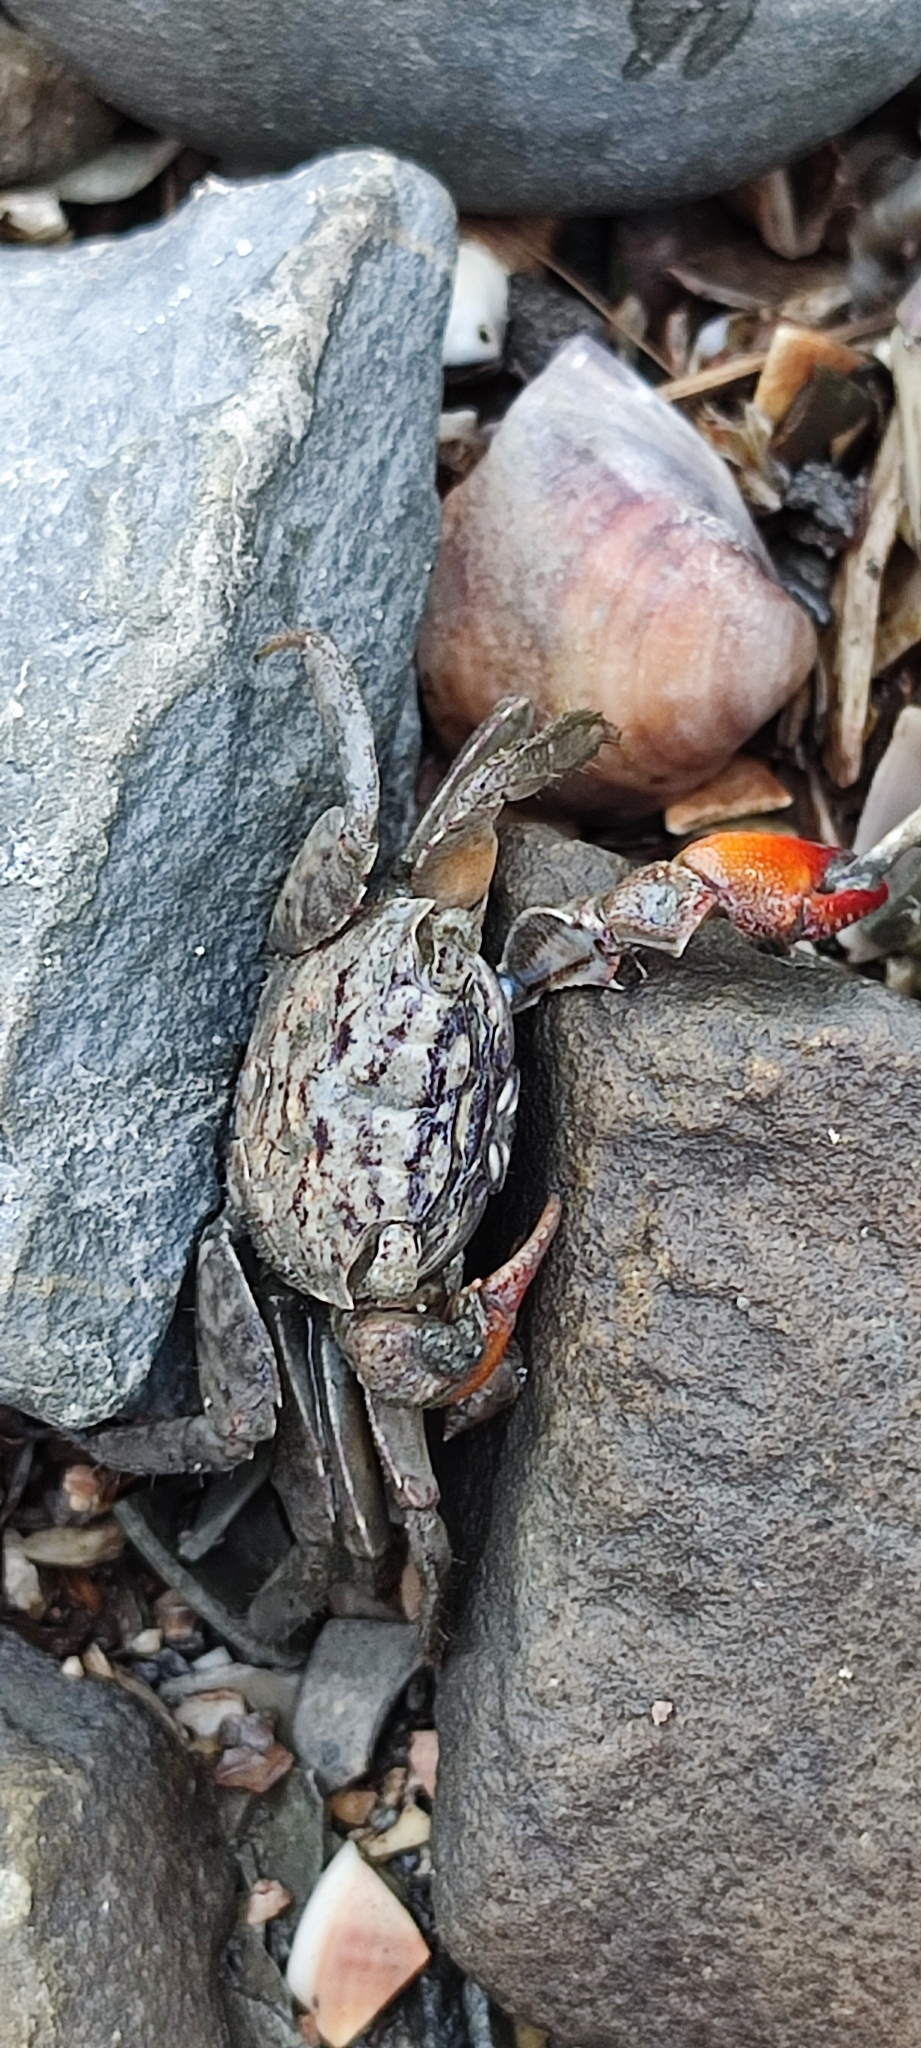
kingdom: Animalia
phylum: Arthropoda
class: Malacostraca
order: Decapoda
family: Sesarmidae
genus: Parasesarma
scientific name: Parasesarma affine
